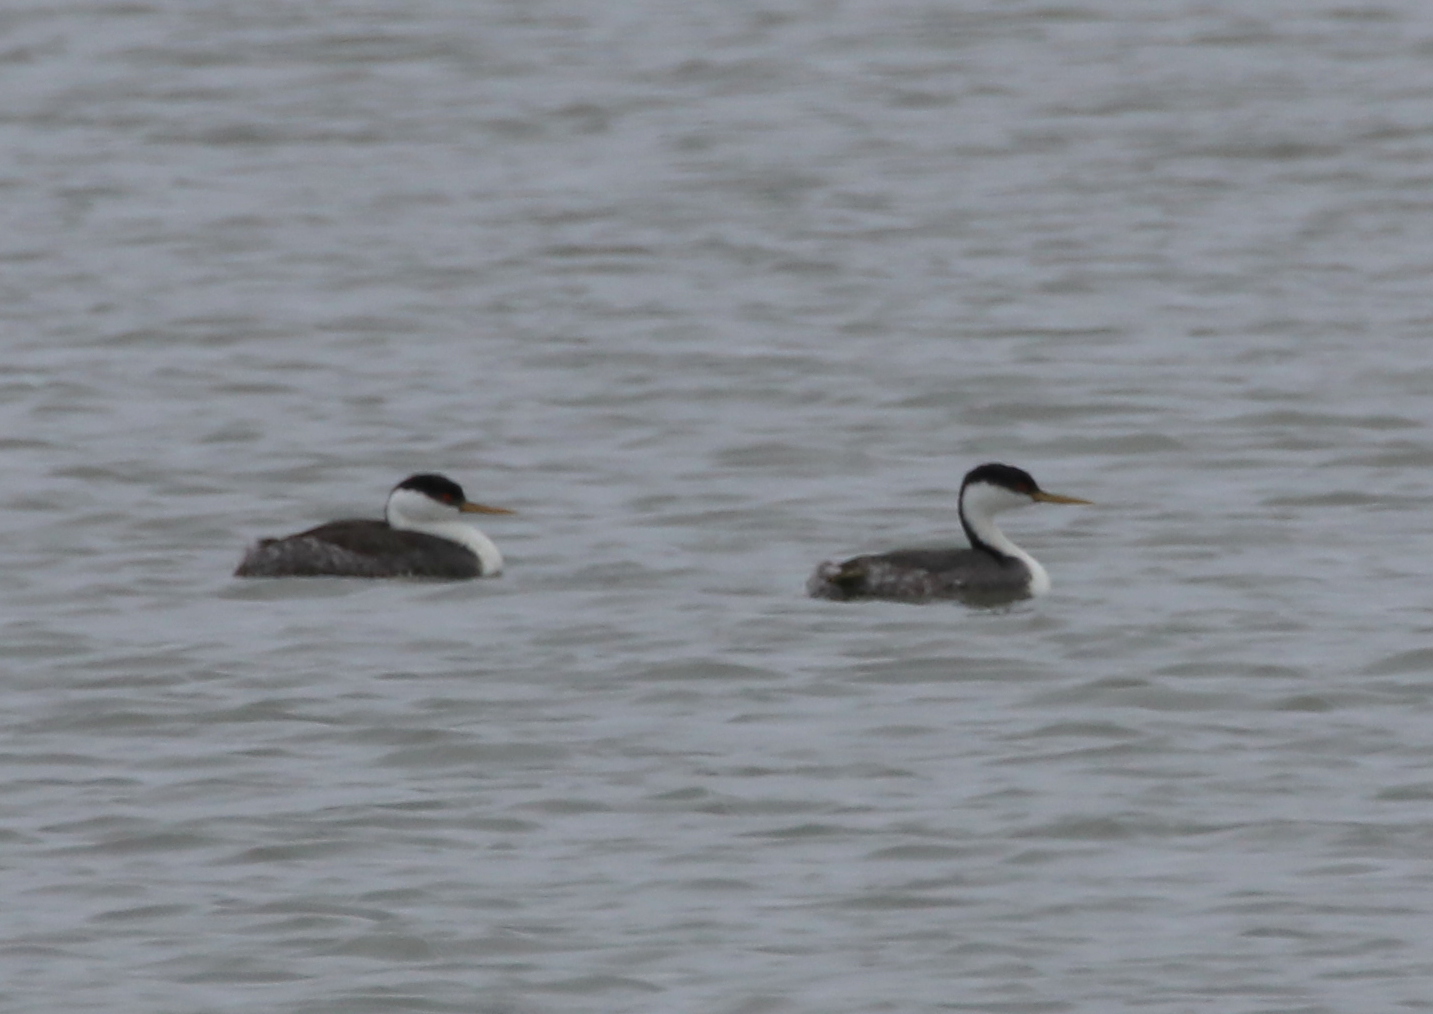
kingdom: Animalia
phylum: Chordata
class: Aves
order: Podicipediformes
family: Podicipedidae
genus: Aechmophorus
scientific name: Aechmophorus occidentalis
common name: Western grebe
